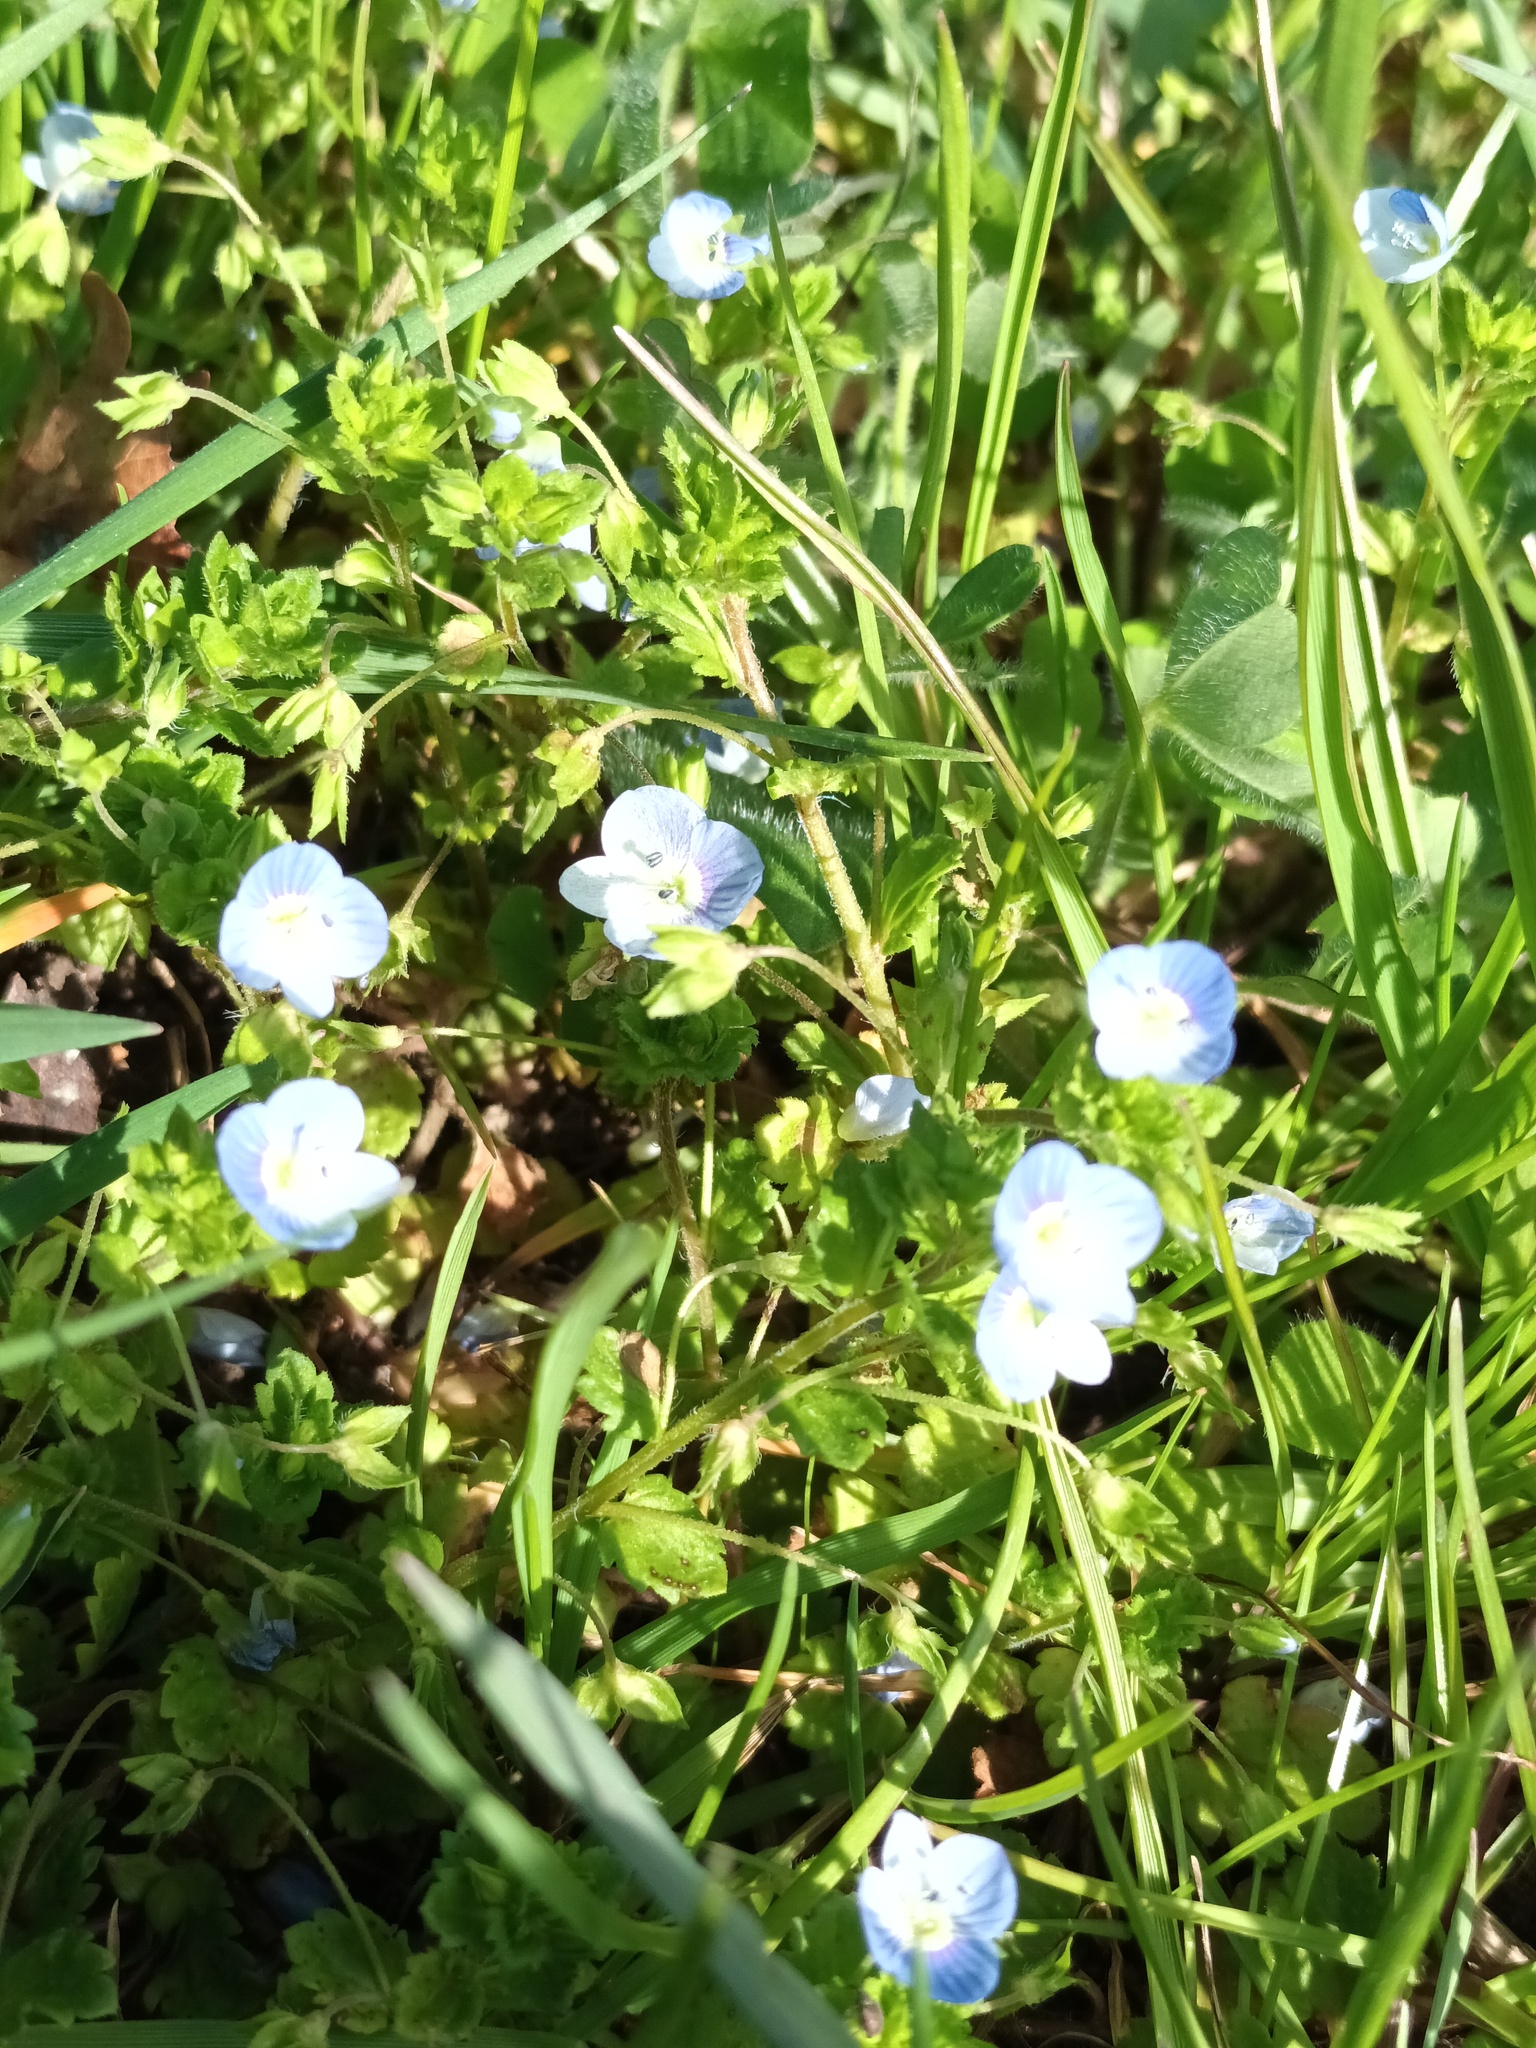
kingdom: Plantae
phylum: Tracheophyta
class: Magnoliopsida
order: Lamiales
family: Plantaginaceae
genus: Veronica
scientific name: Veronica persica
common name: Common field-speedwell
